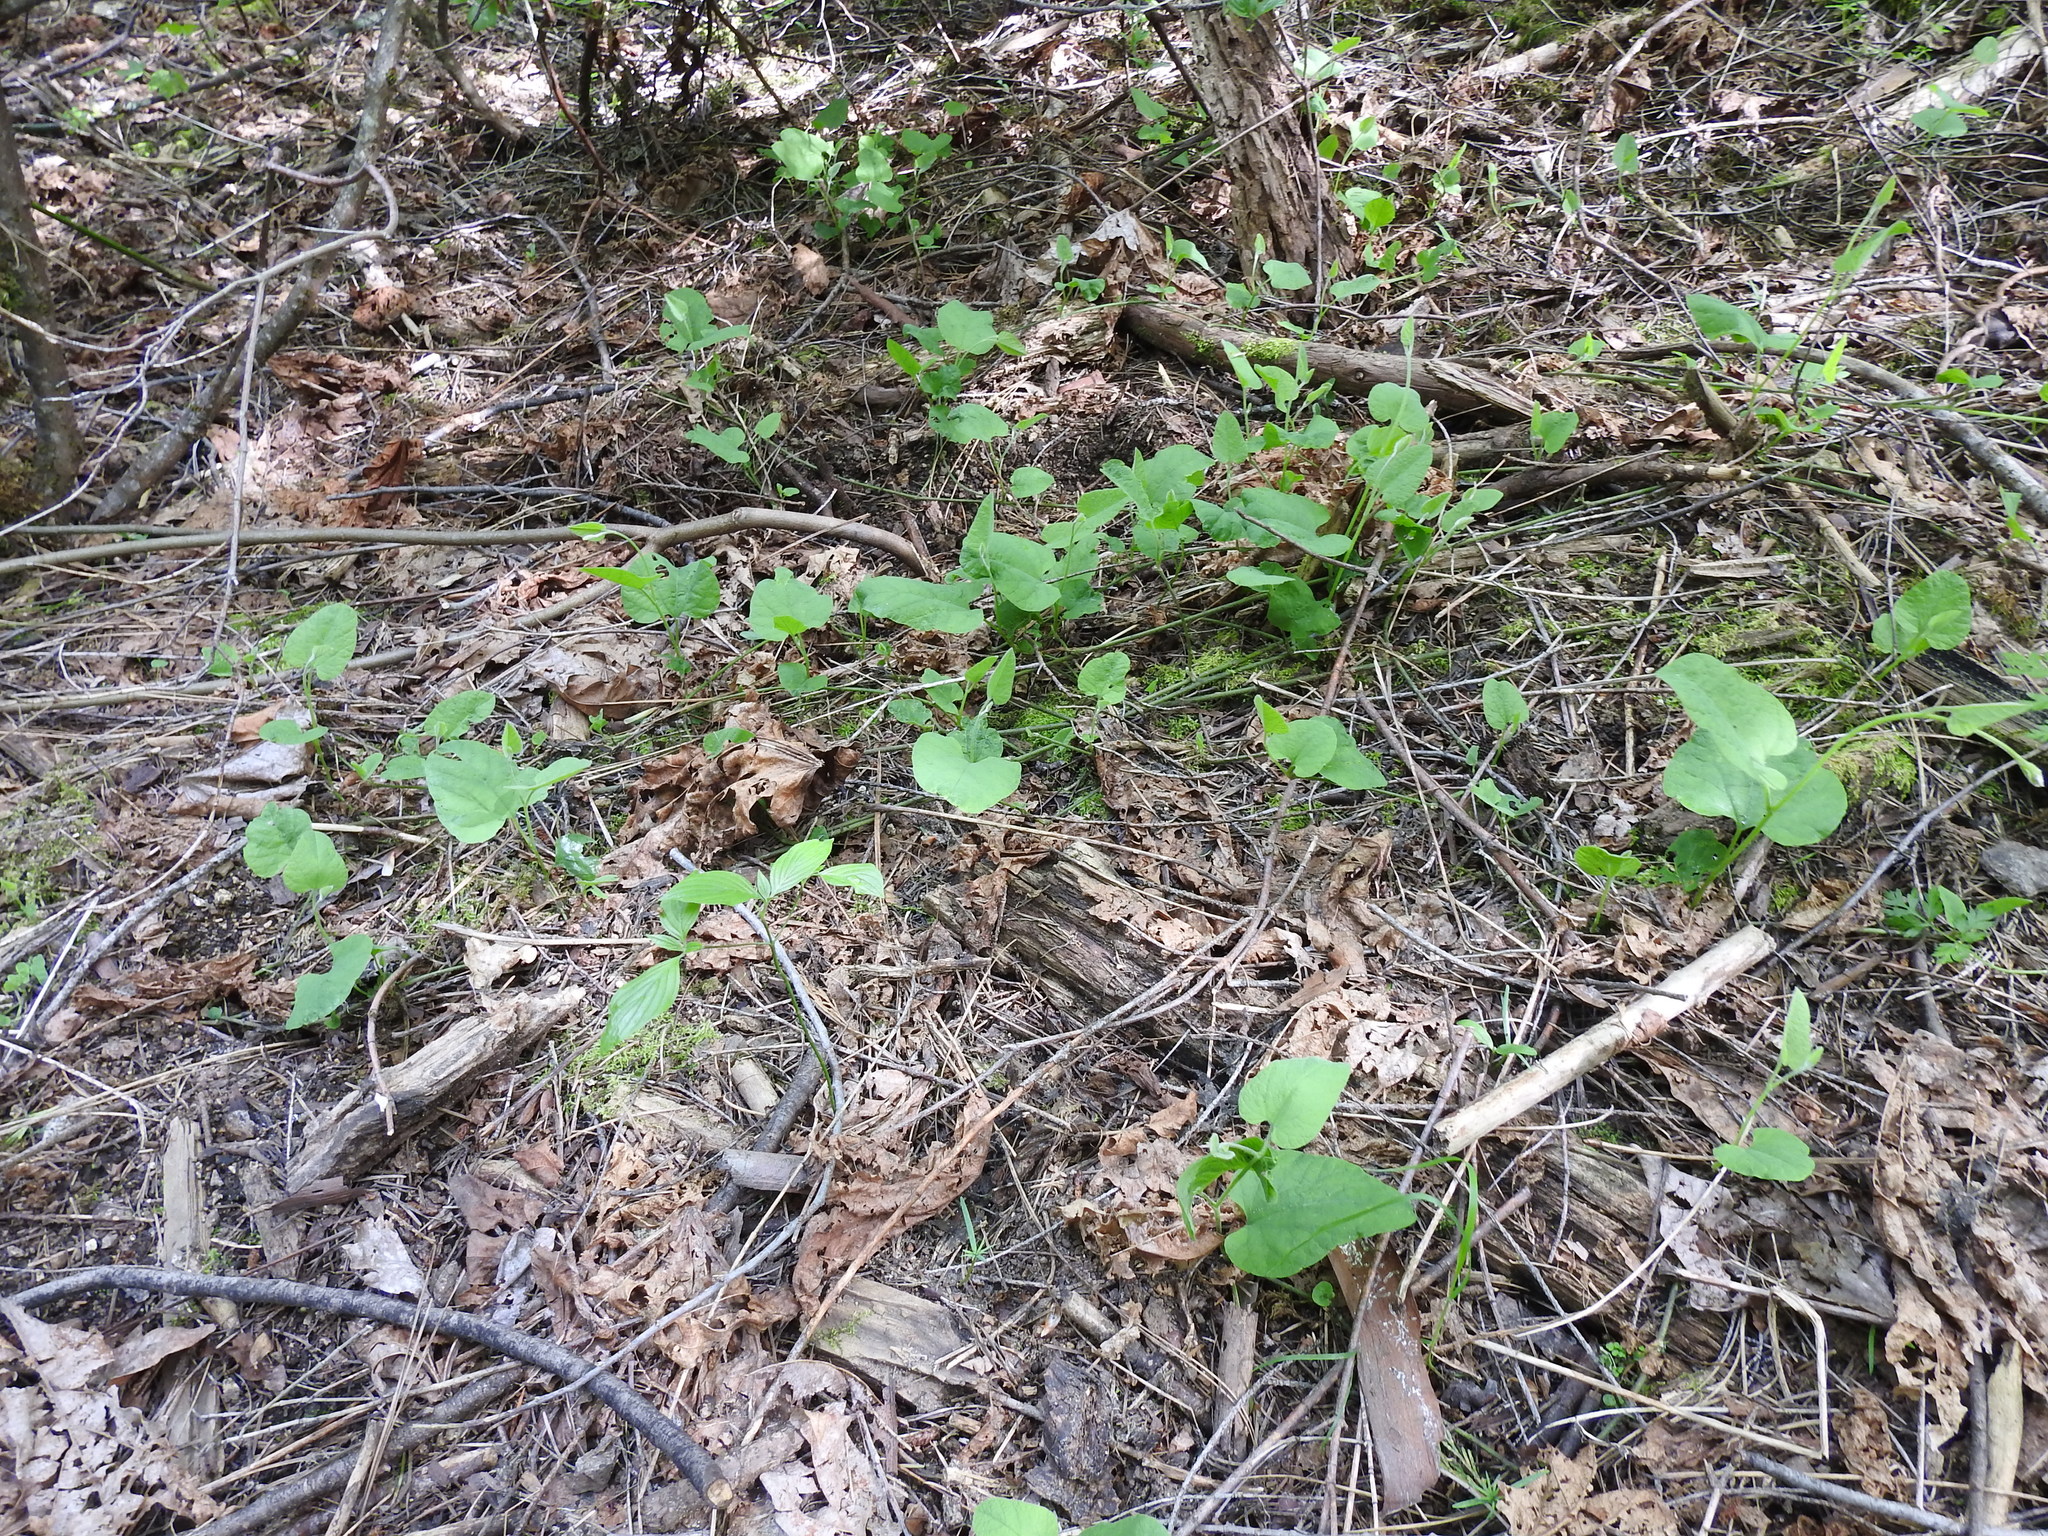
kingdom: Plantae
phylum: Tracheophyta
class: Magnoliopsida
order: Piperales
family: Aristolochiaceae
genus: Isotrema
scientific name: Isotrema californicum
